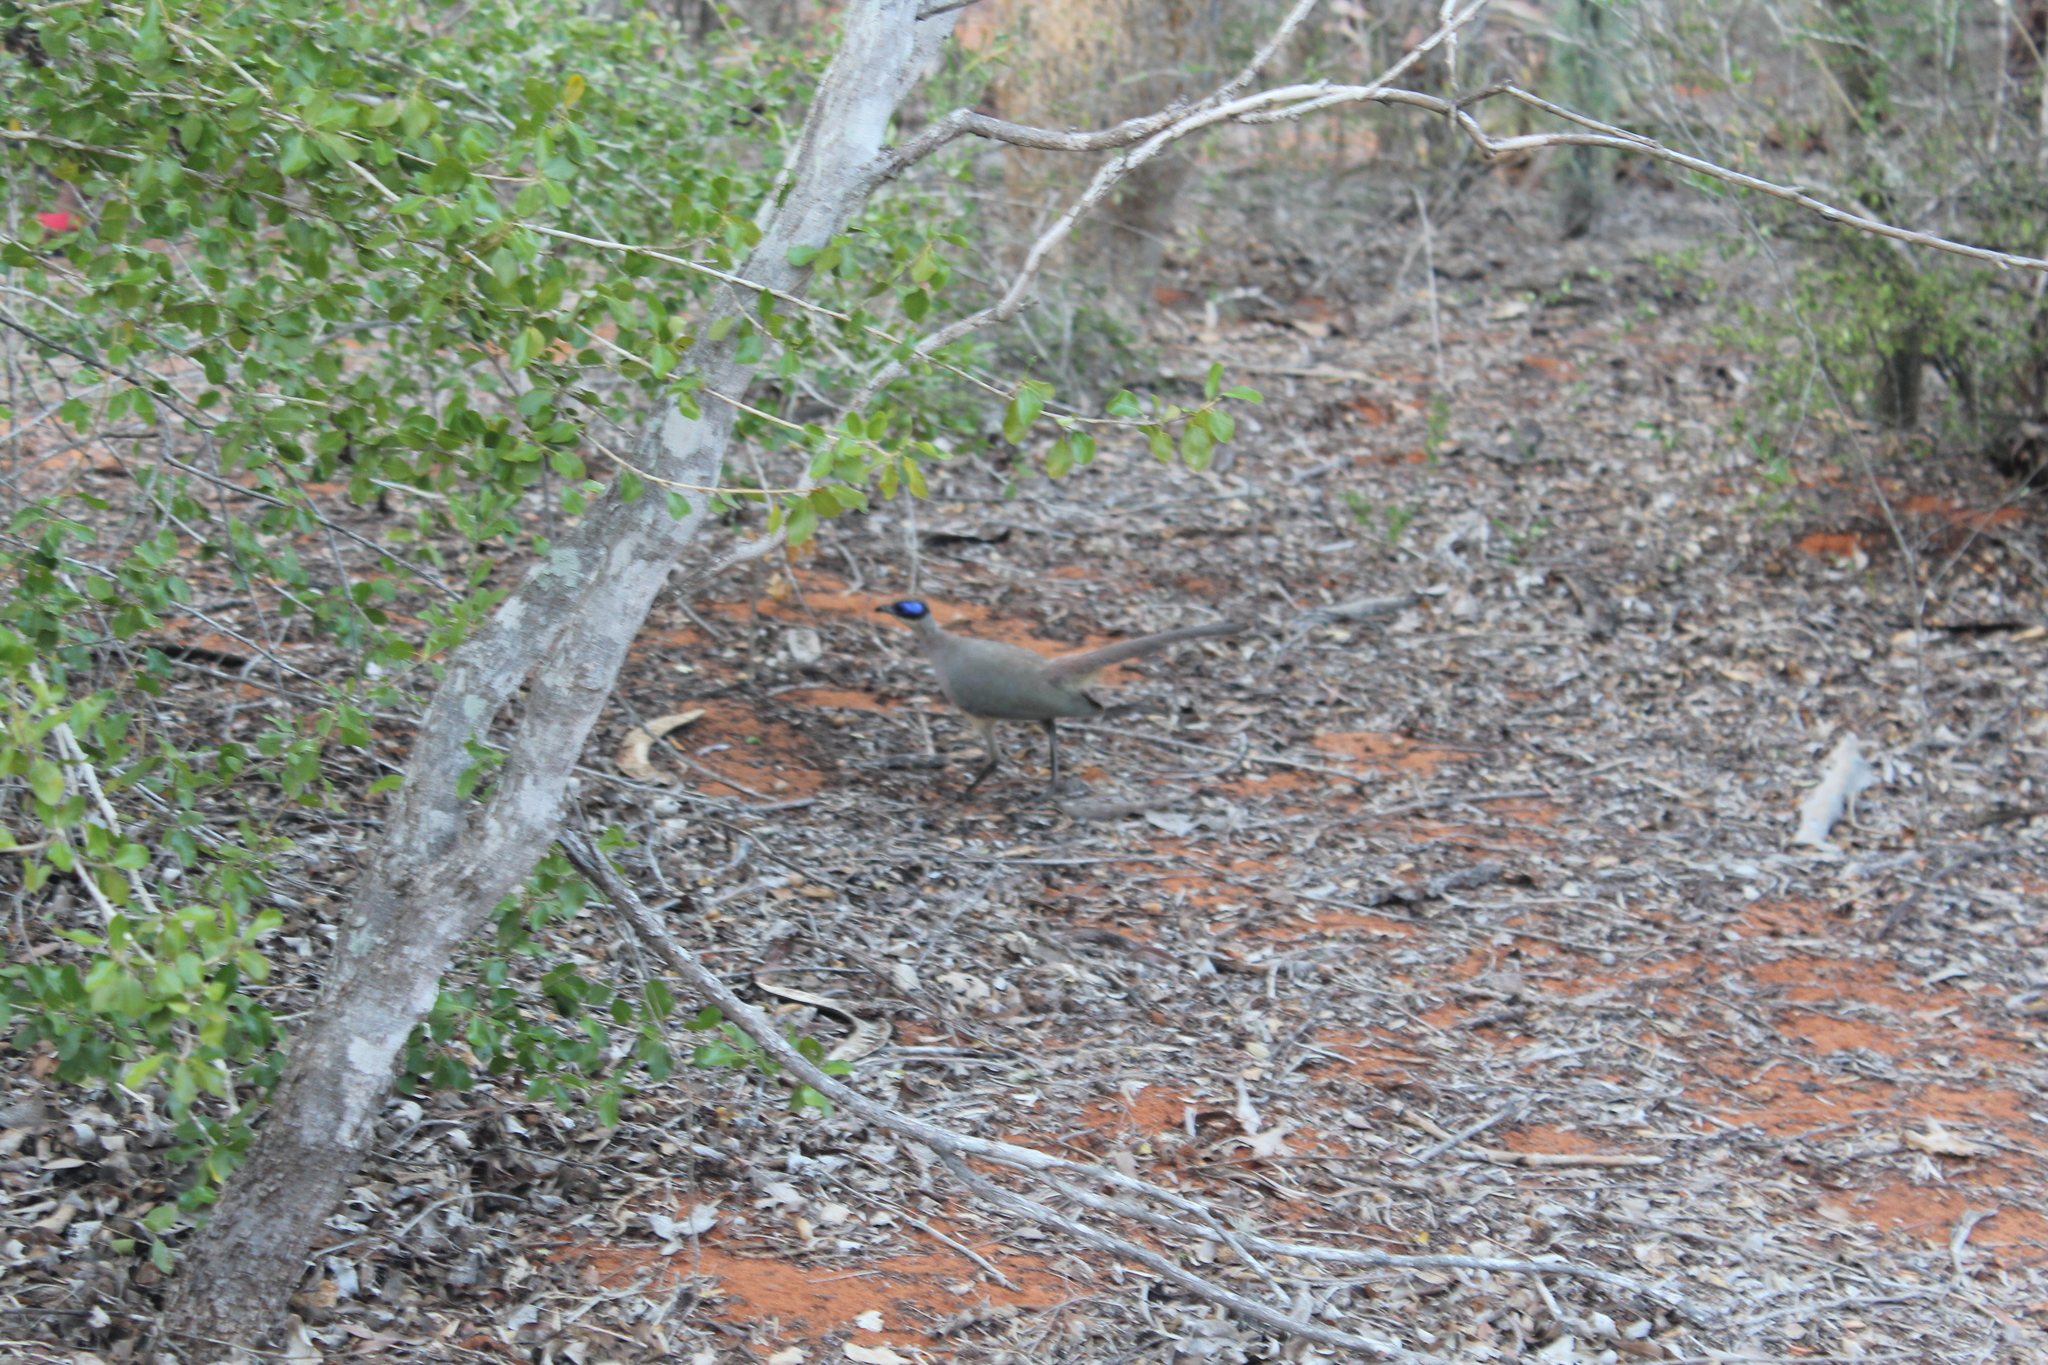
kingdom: Animalia
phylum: Chordata
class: Aves
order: Cuculiformes
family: Cuculidae
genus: Coua
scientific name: Coua ruficeps
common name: Red-capped coua
